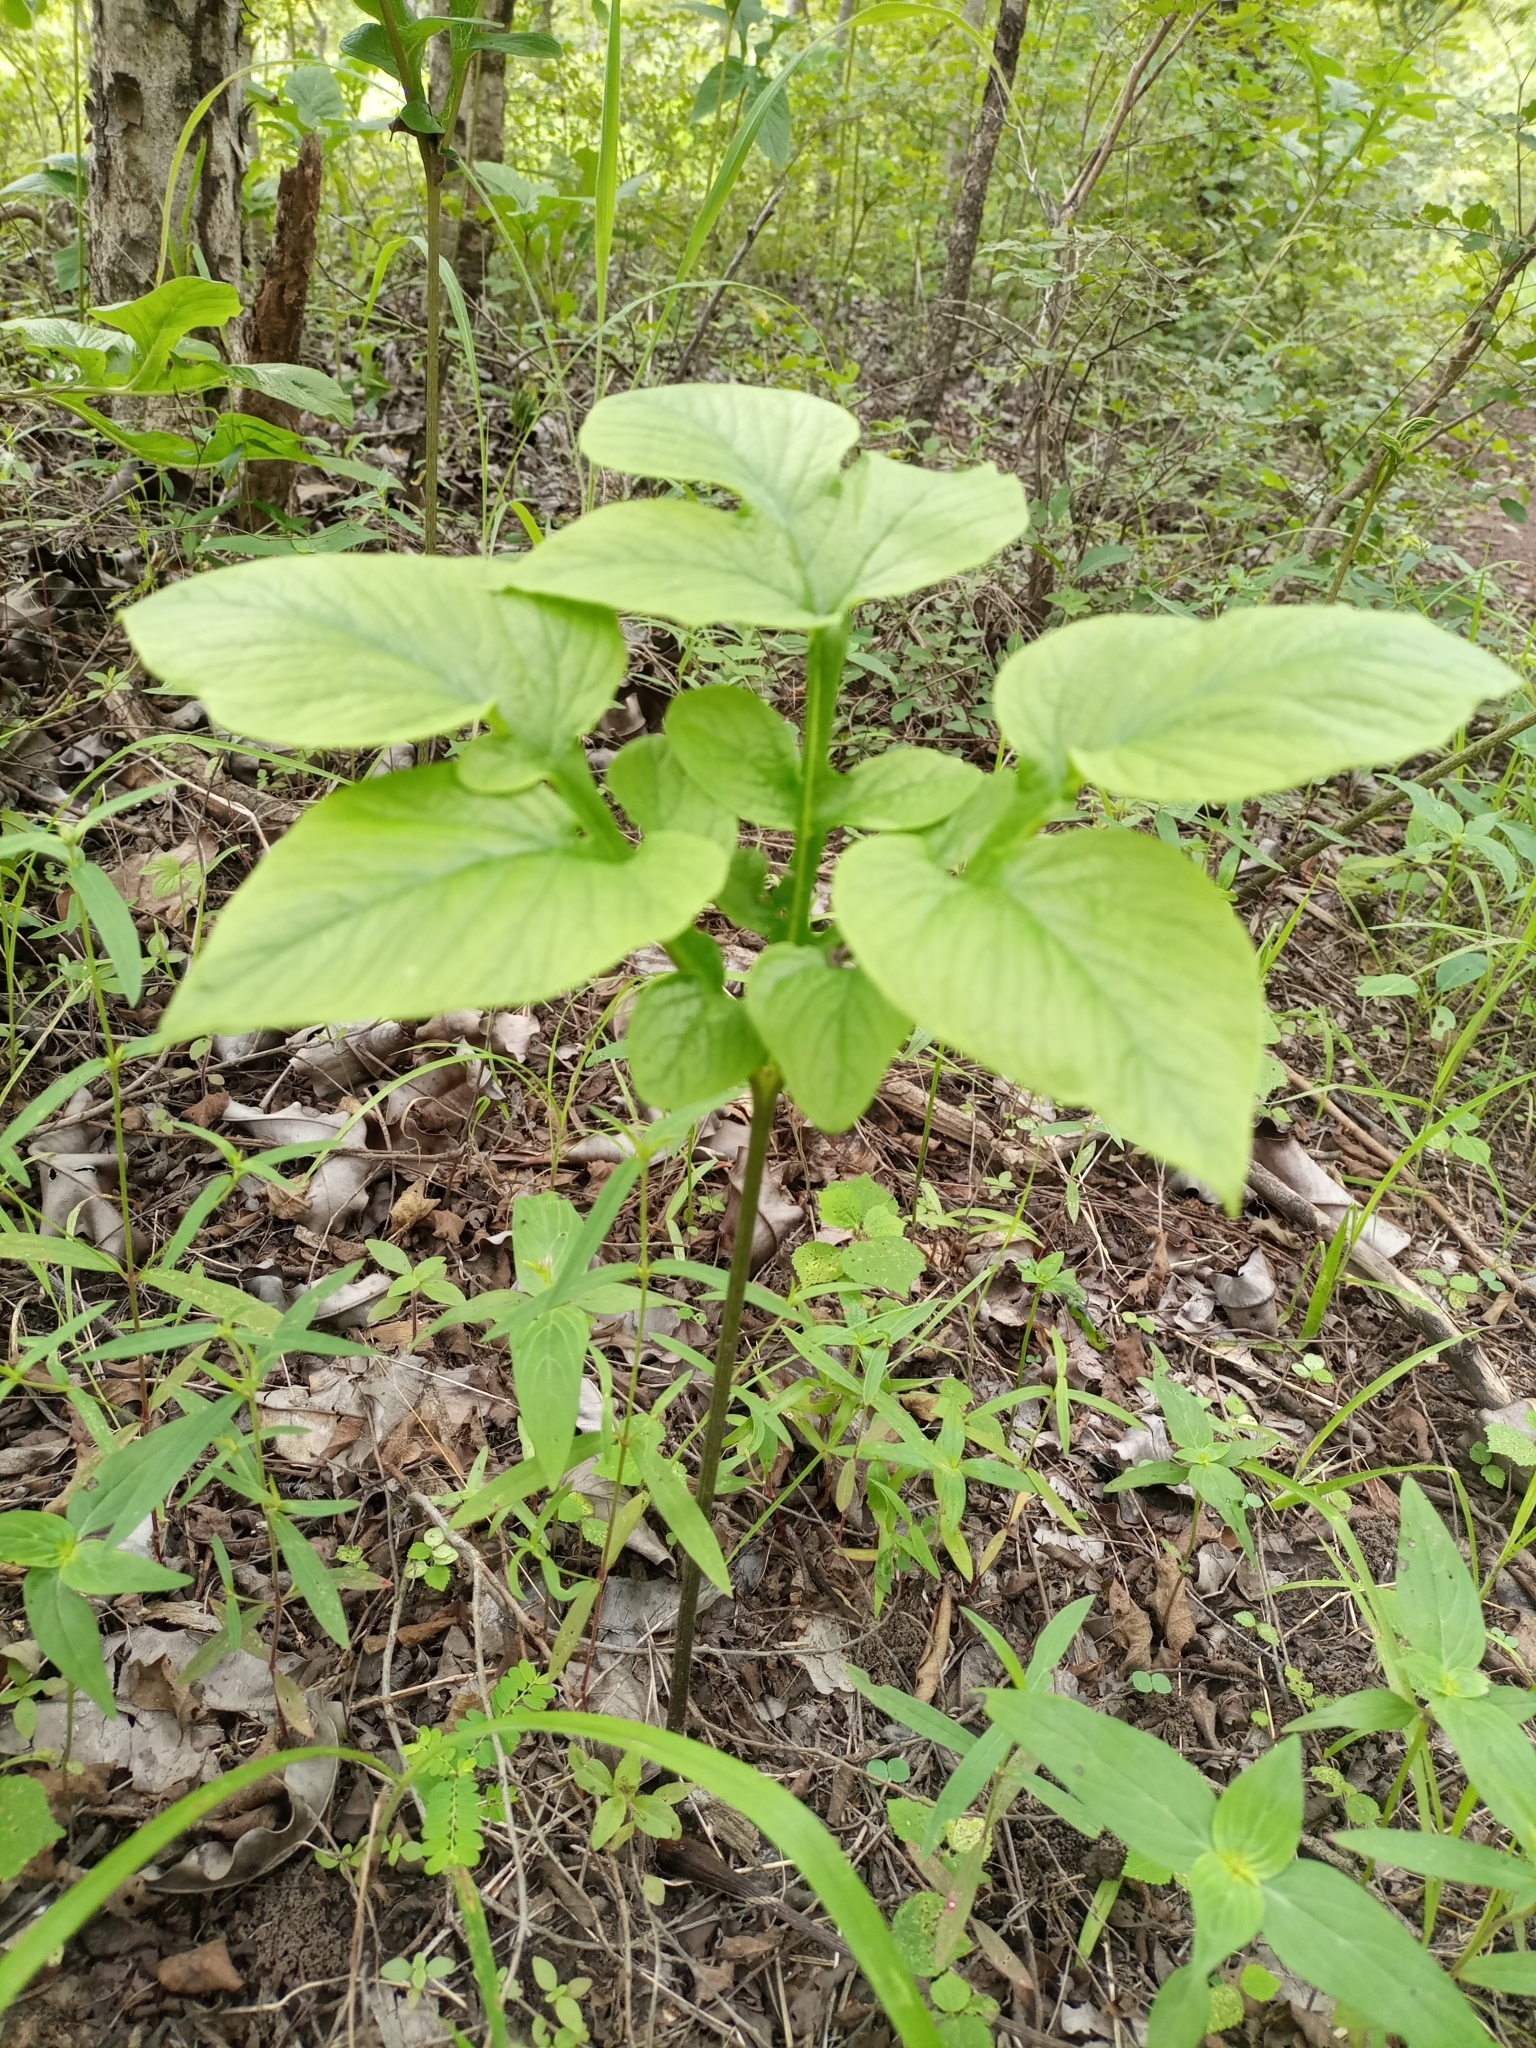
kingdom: Plantae
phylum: Tracheophyta
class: Liliopsida
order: Dioscoreales
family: Dioscoreaceae
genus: Tacca
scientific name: Tacca leontopetaloides
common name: Arrowroot
